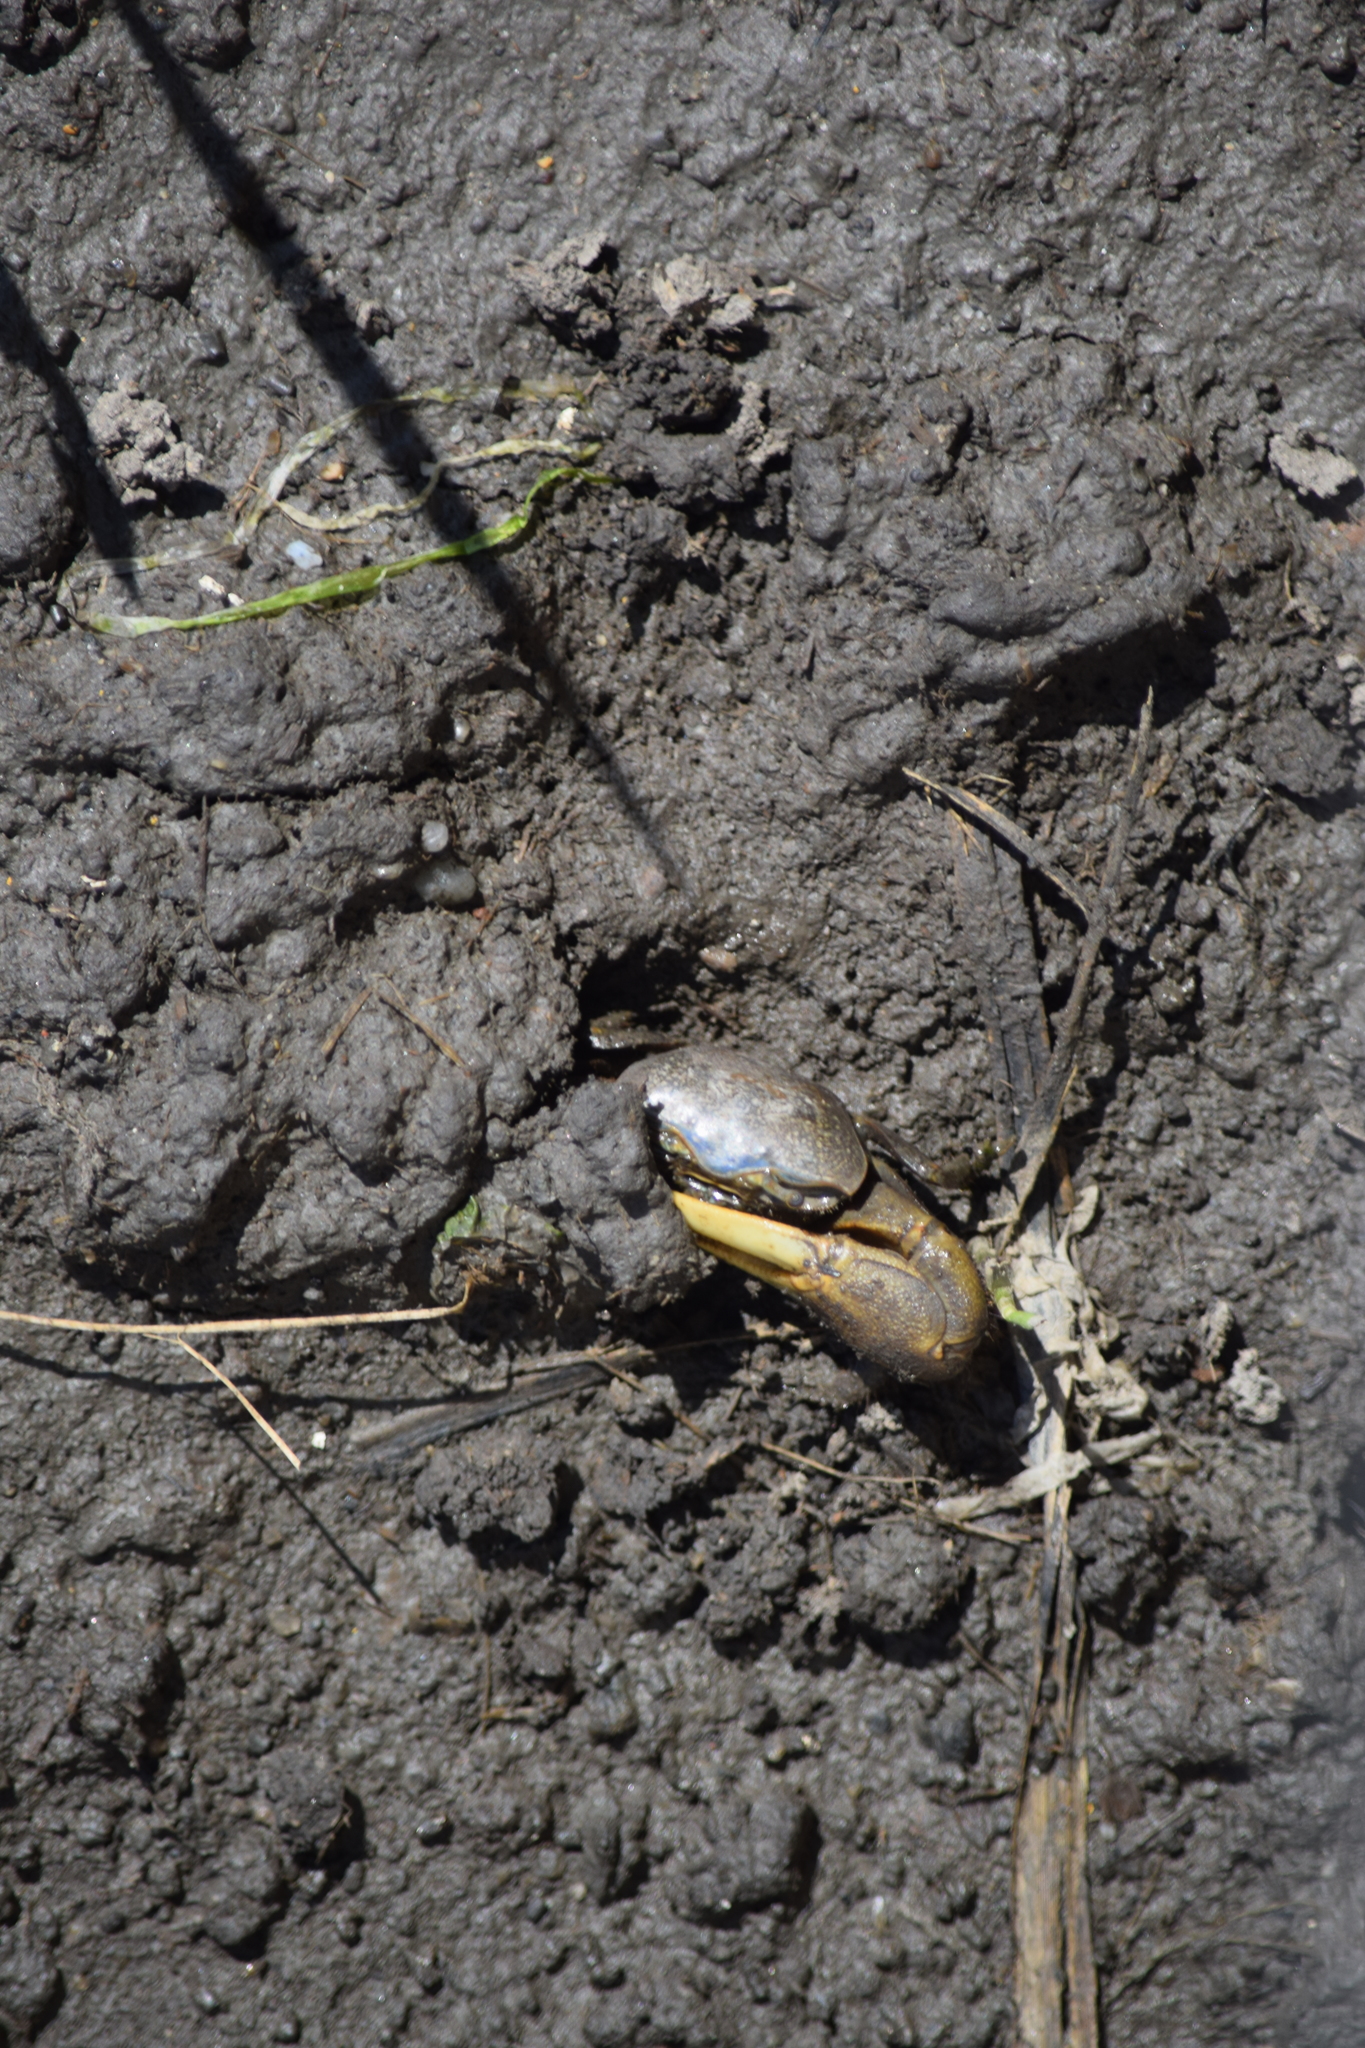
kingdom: Animalia
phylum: Arthropoda
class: Malacostraca
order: Decapoda
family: Ocypodidae
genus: Minuca
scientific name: Minuca pugnax
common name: Mud fiddler crab
